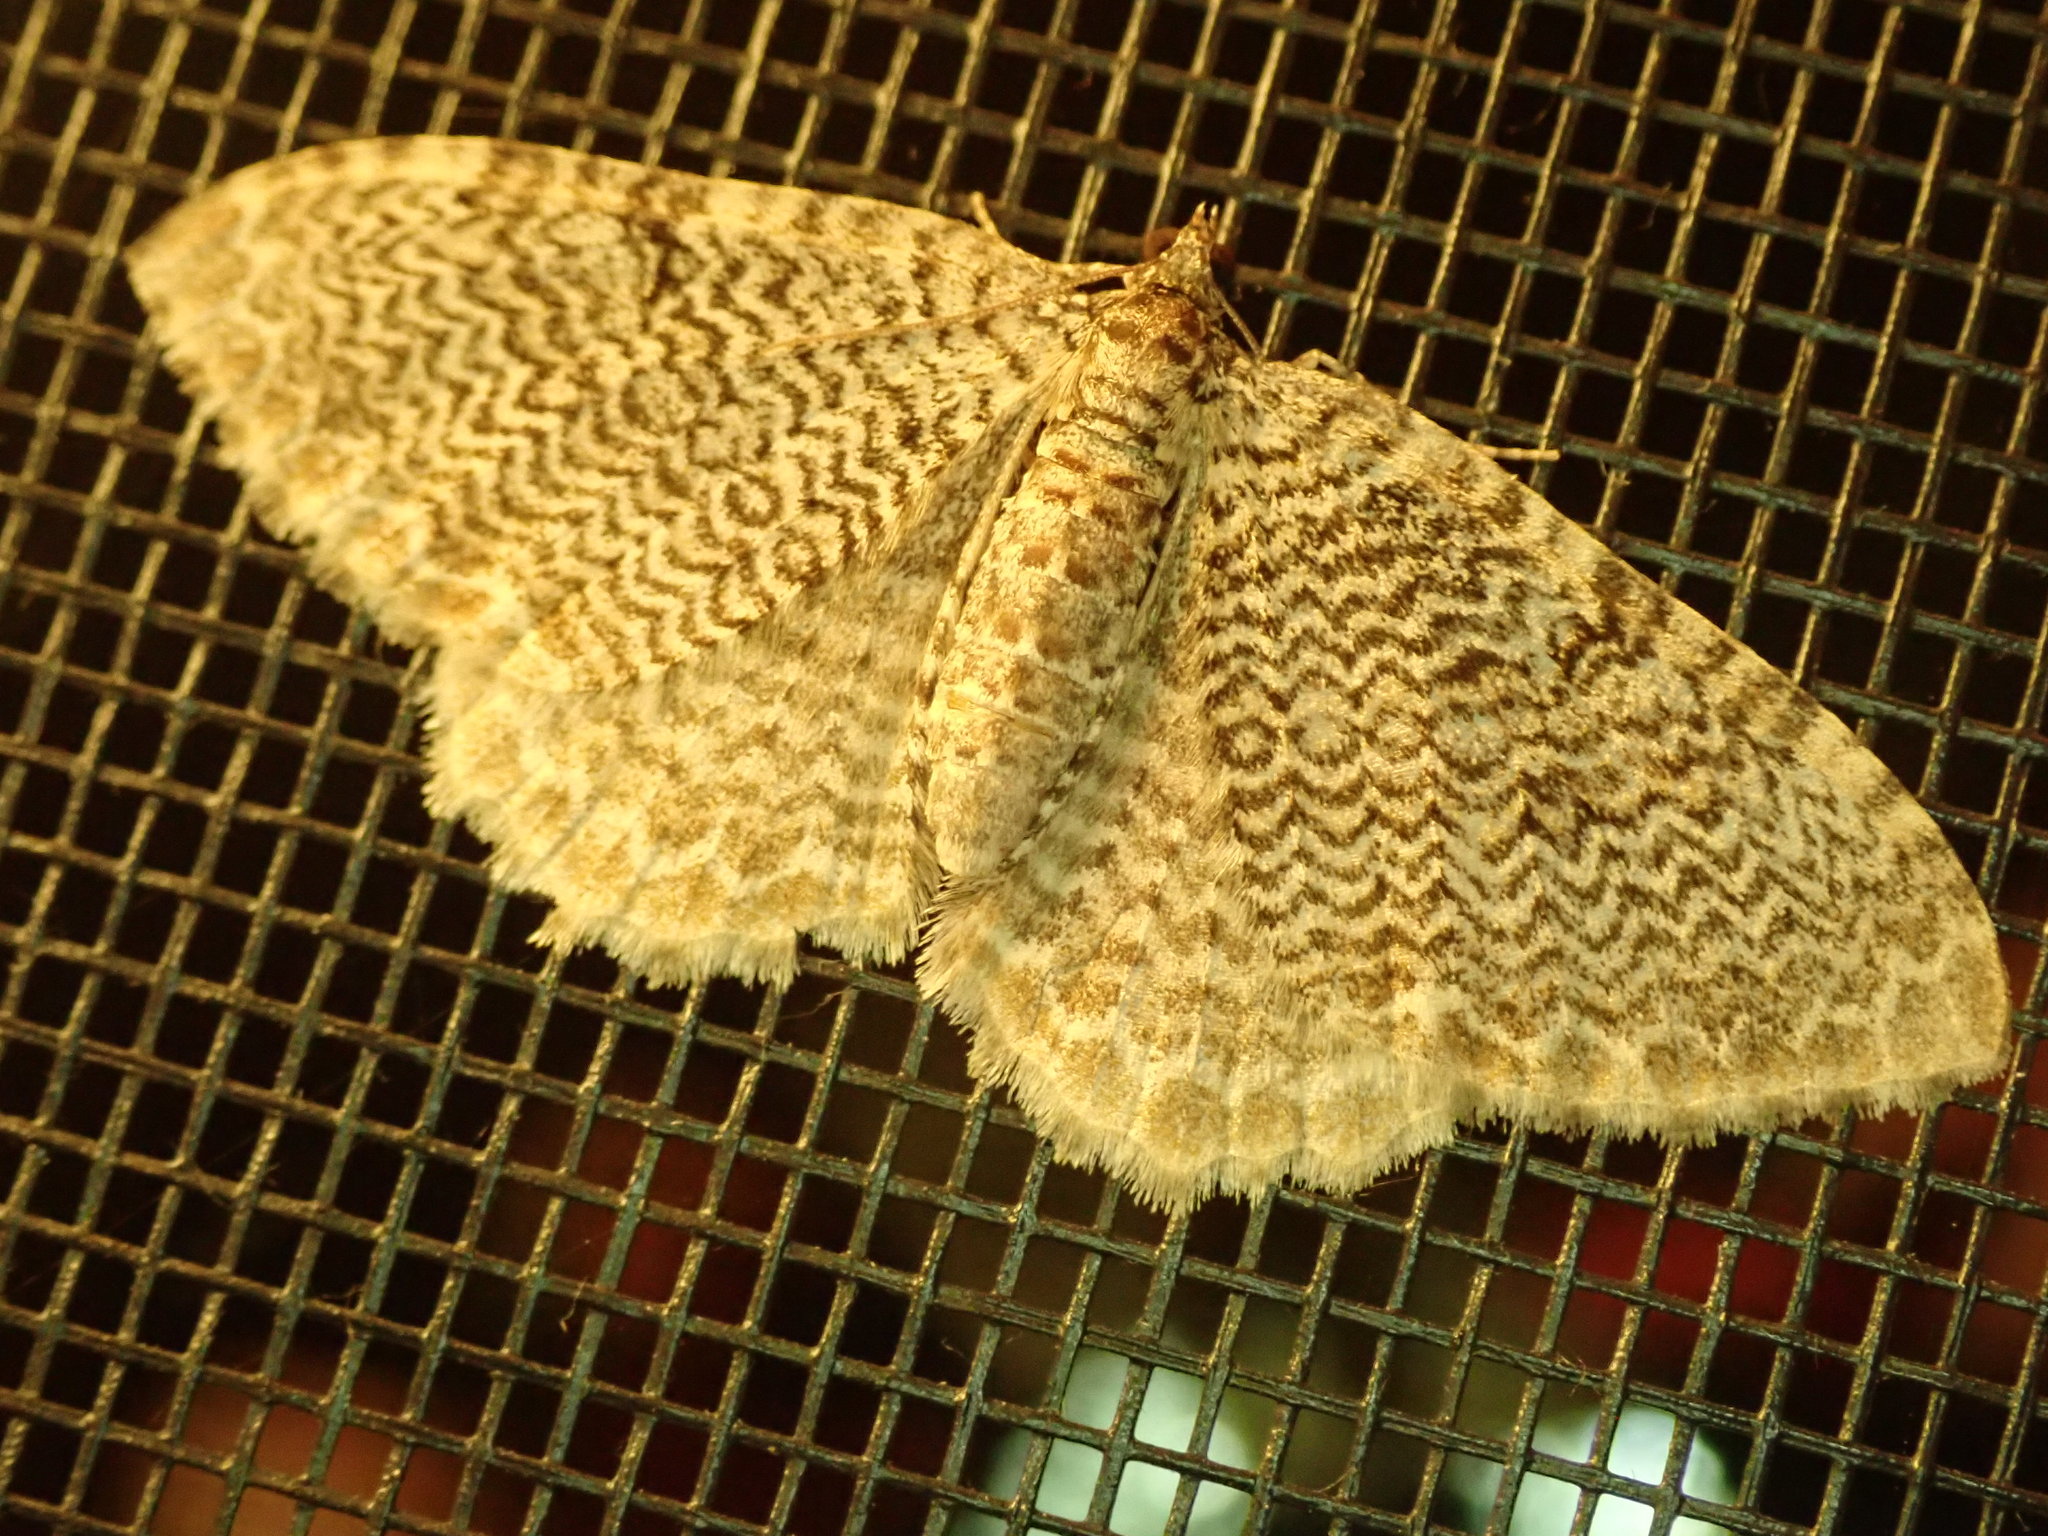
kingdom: Animalia
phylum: Arthropoda
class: Insecta
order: Lepidoptera
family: Geometridae
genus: Rheumaptera
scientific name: Rheumaptera
